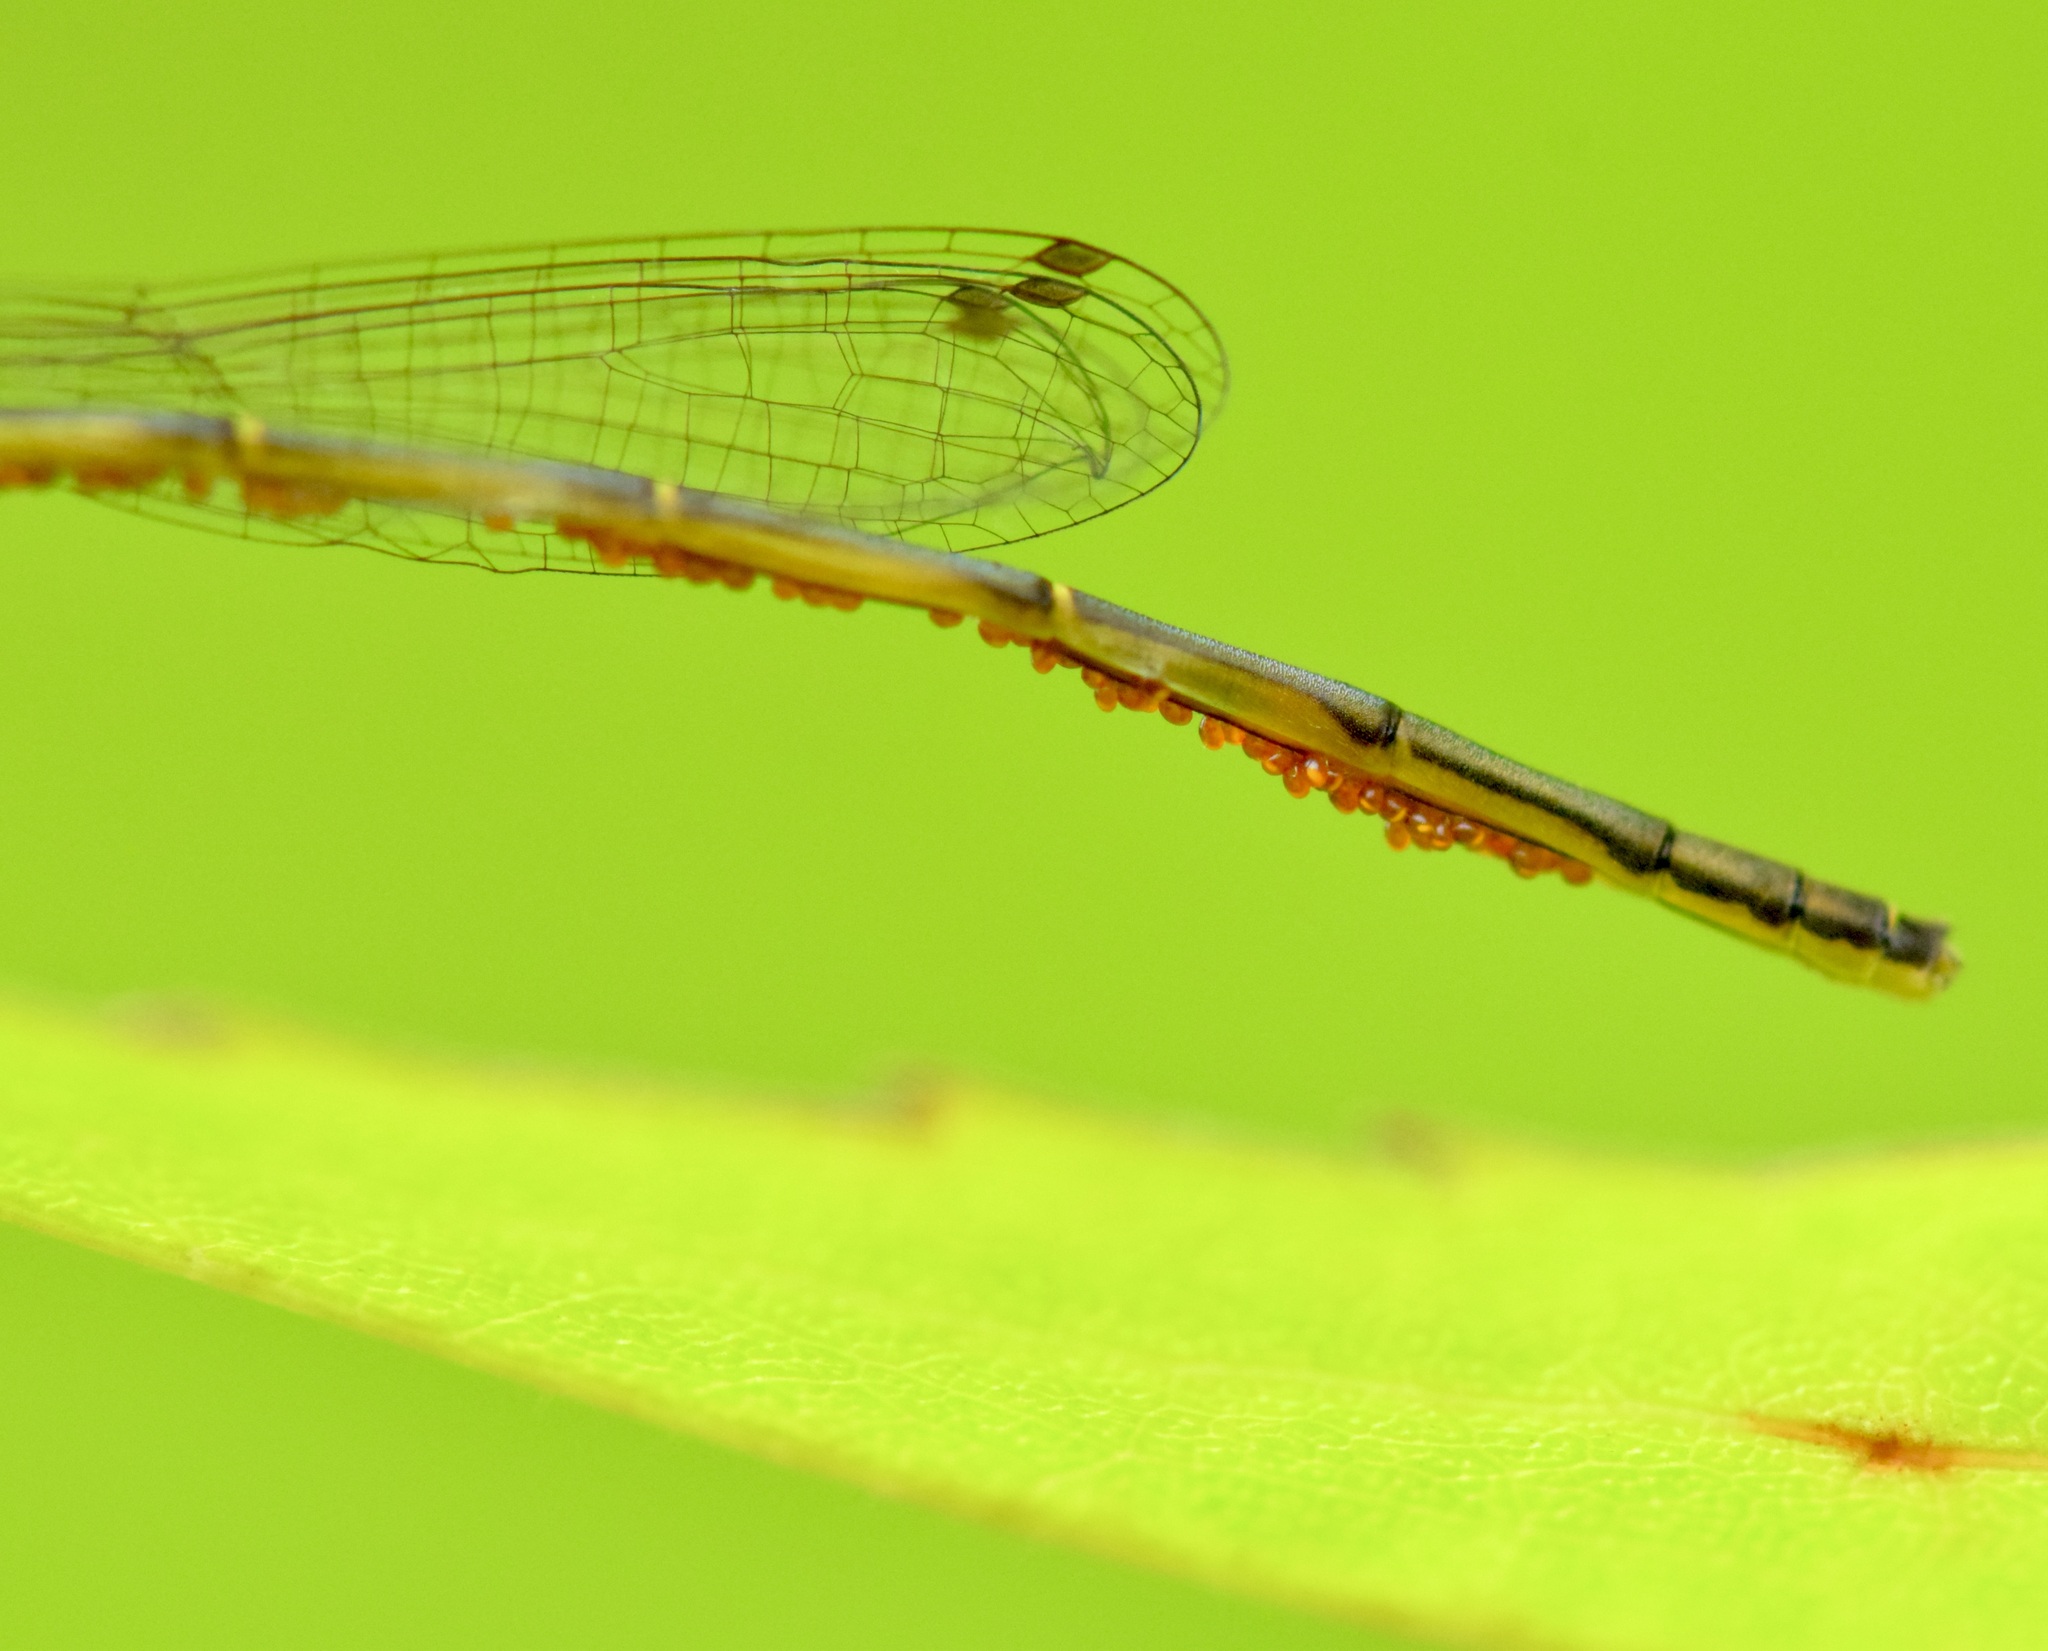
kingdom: Animalia
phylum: Arthropoda
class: Insecta
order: Odonata
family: Coenagrionidae
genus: Ischnura
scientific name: Ischnura posita
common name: Fragile forktail
